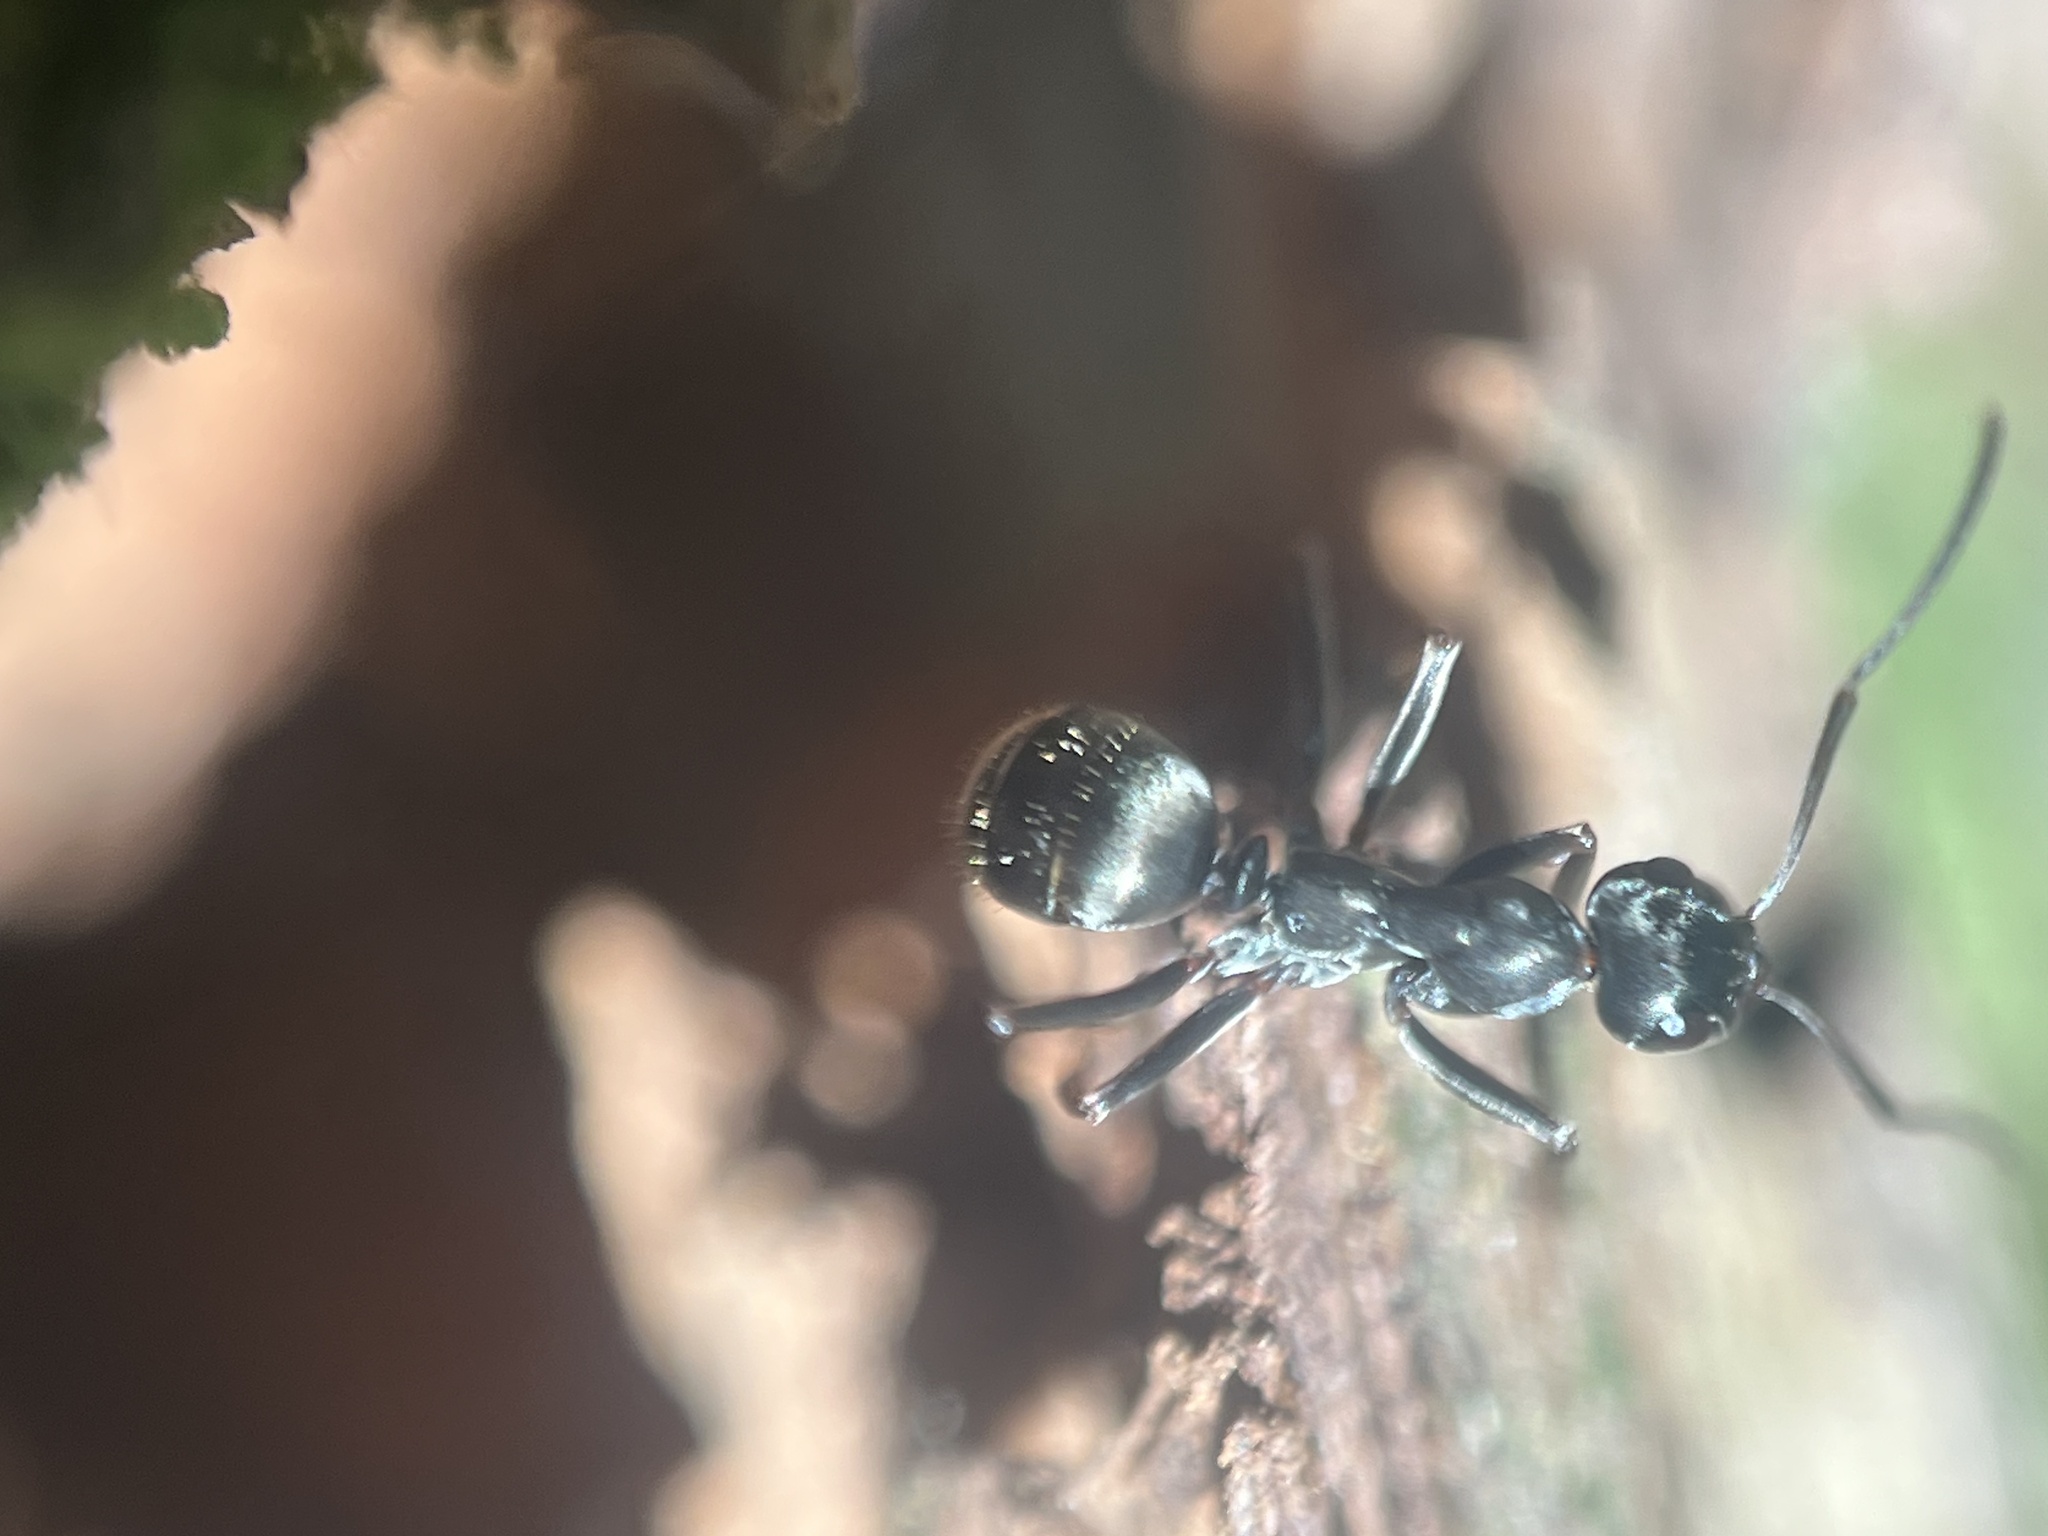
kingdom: Animalia
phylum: Arthropoda
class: Insecta
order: Hymenoptera
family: Formicidae
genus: Formica
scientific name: Formica
